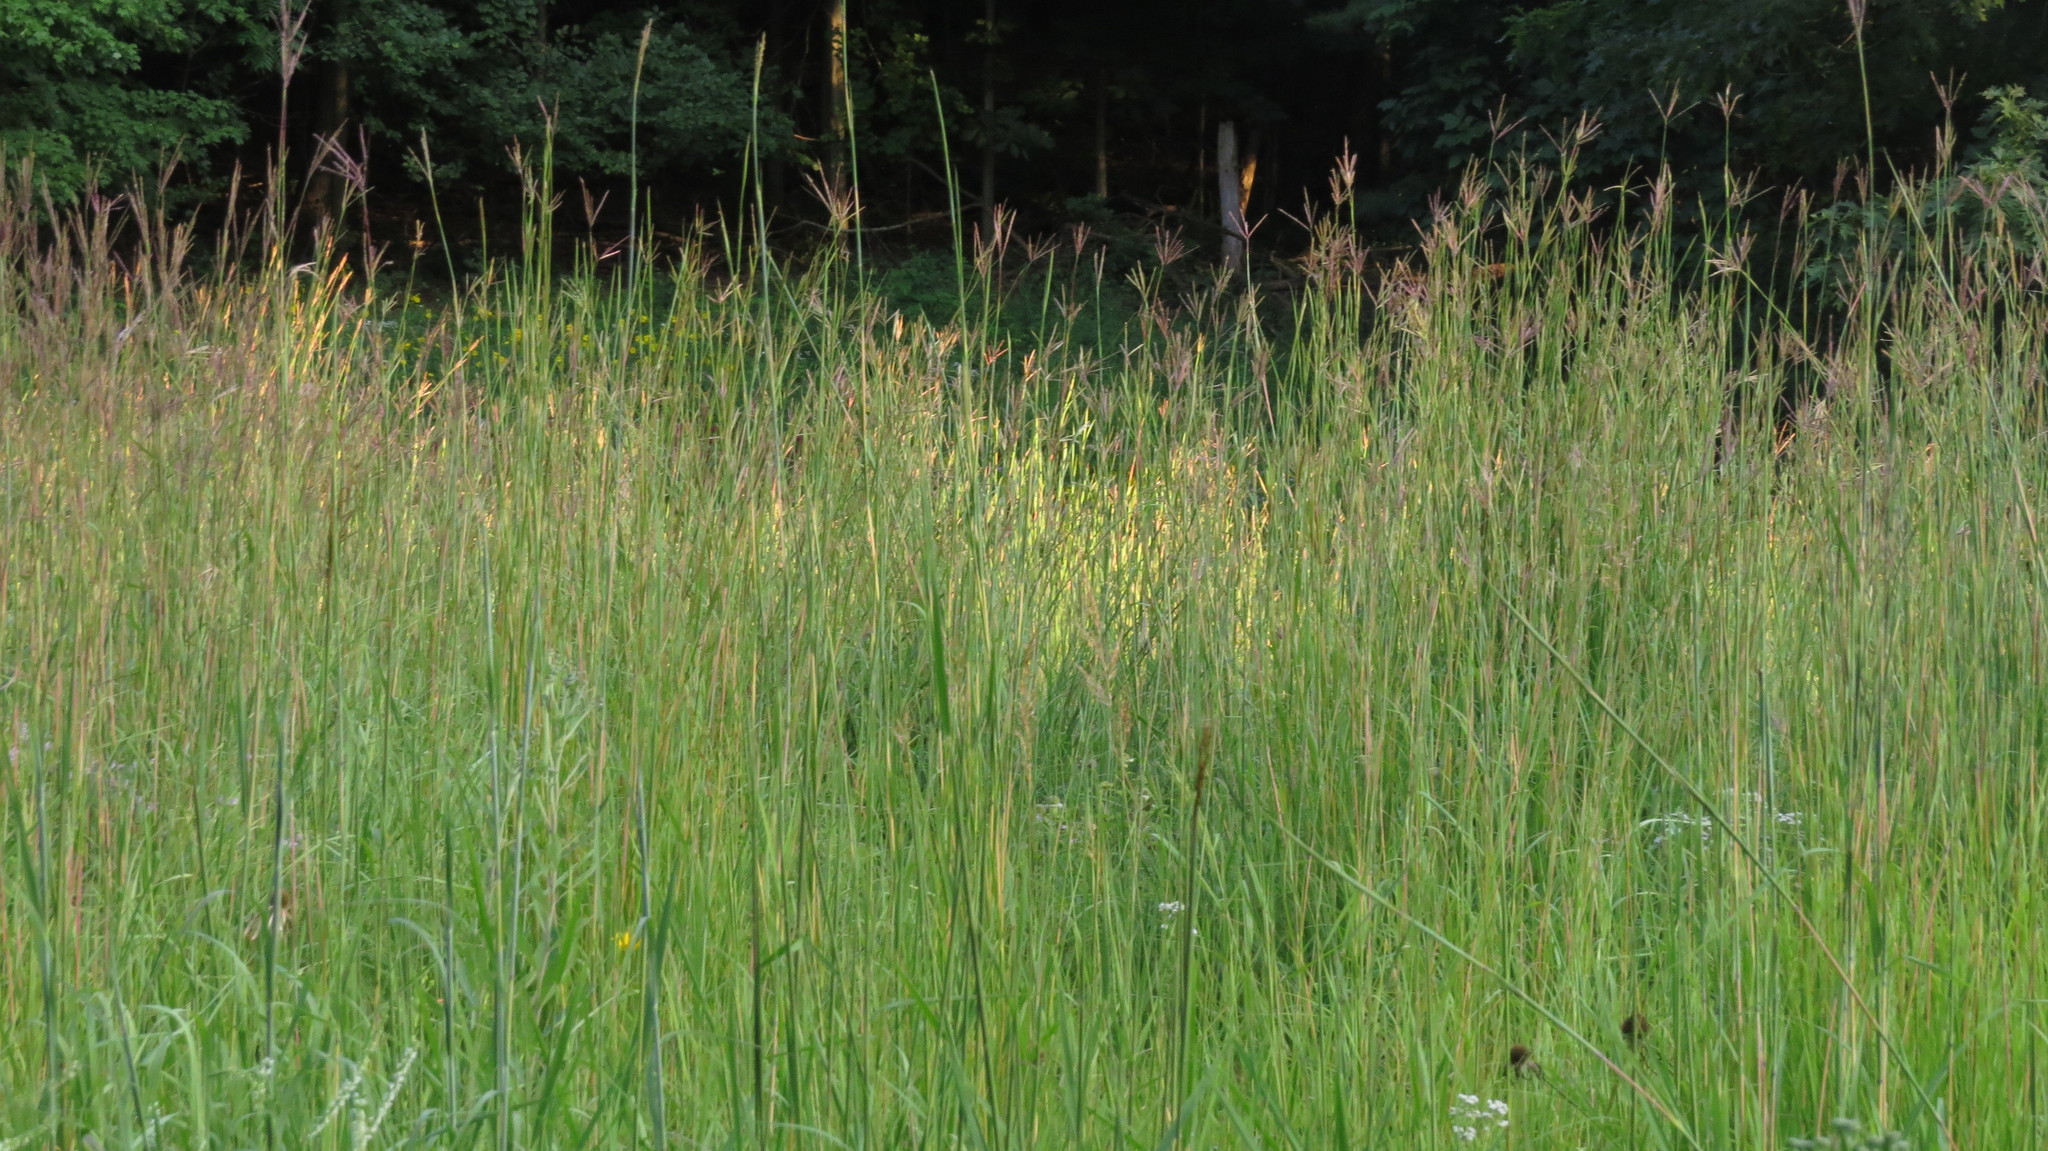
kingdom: Plantae
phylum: Tracheophyta
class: Liliopsida
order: Poales
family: Poaceae
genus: Andropogon
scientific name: Andropogon gerardi
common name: Big bluestem
